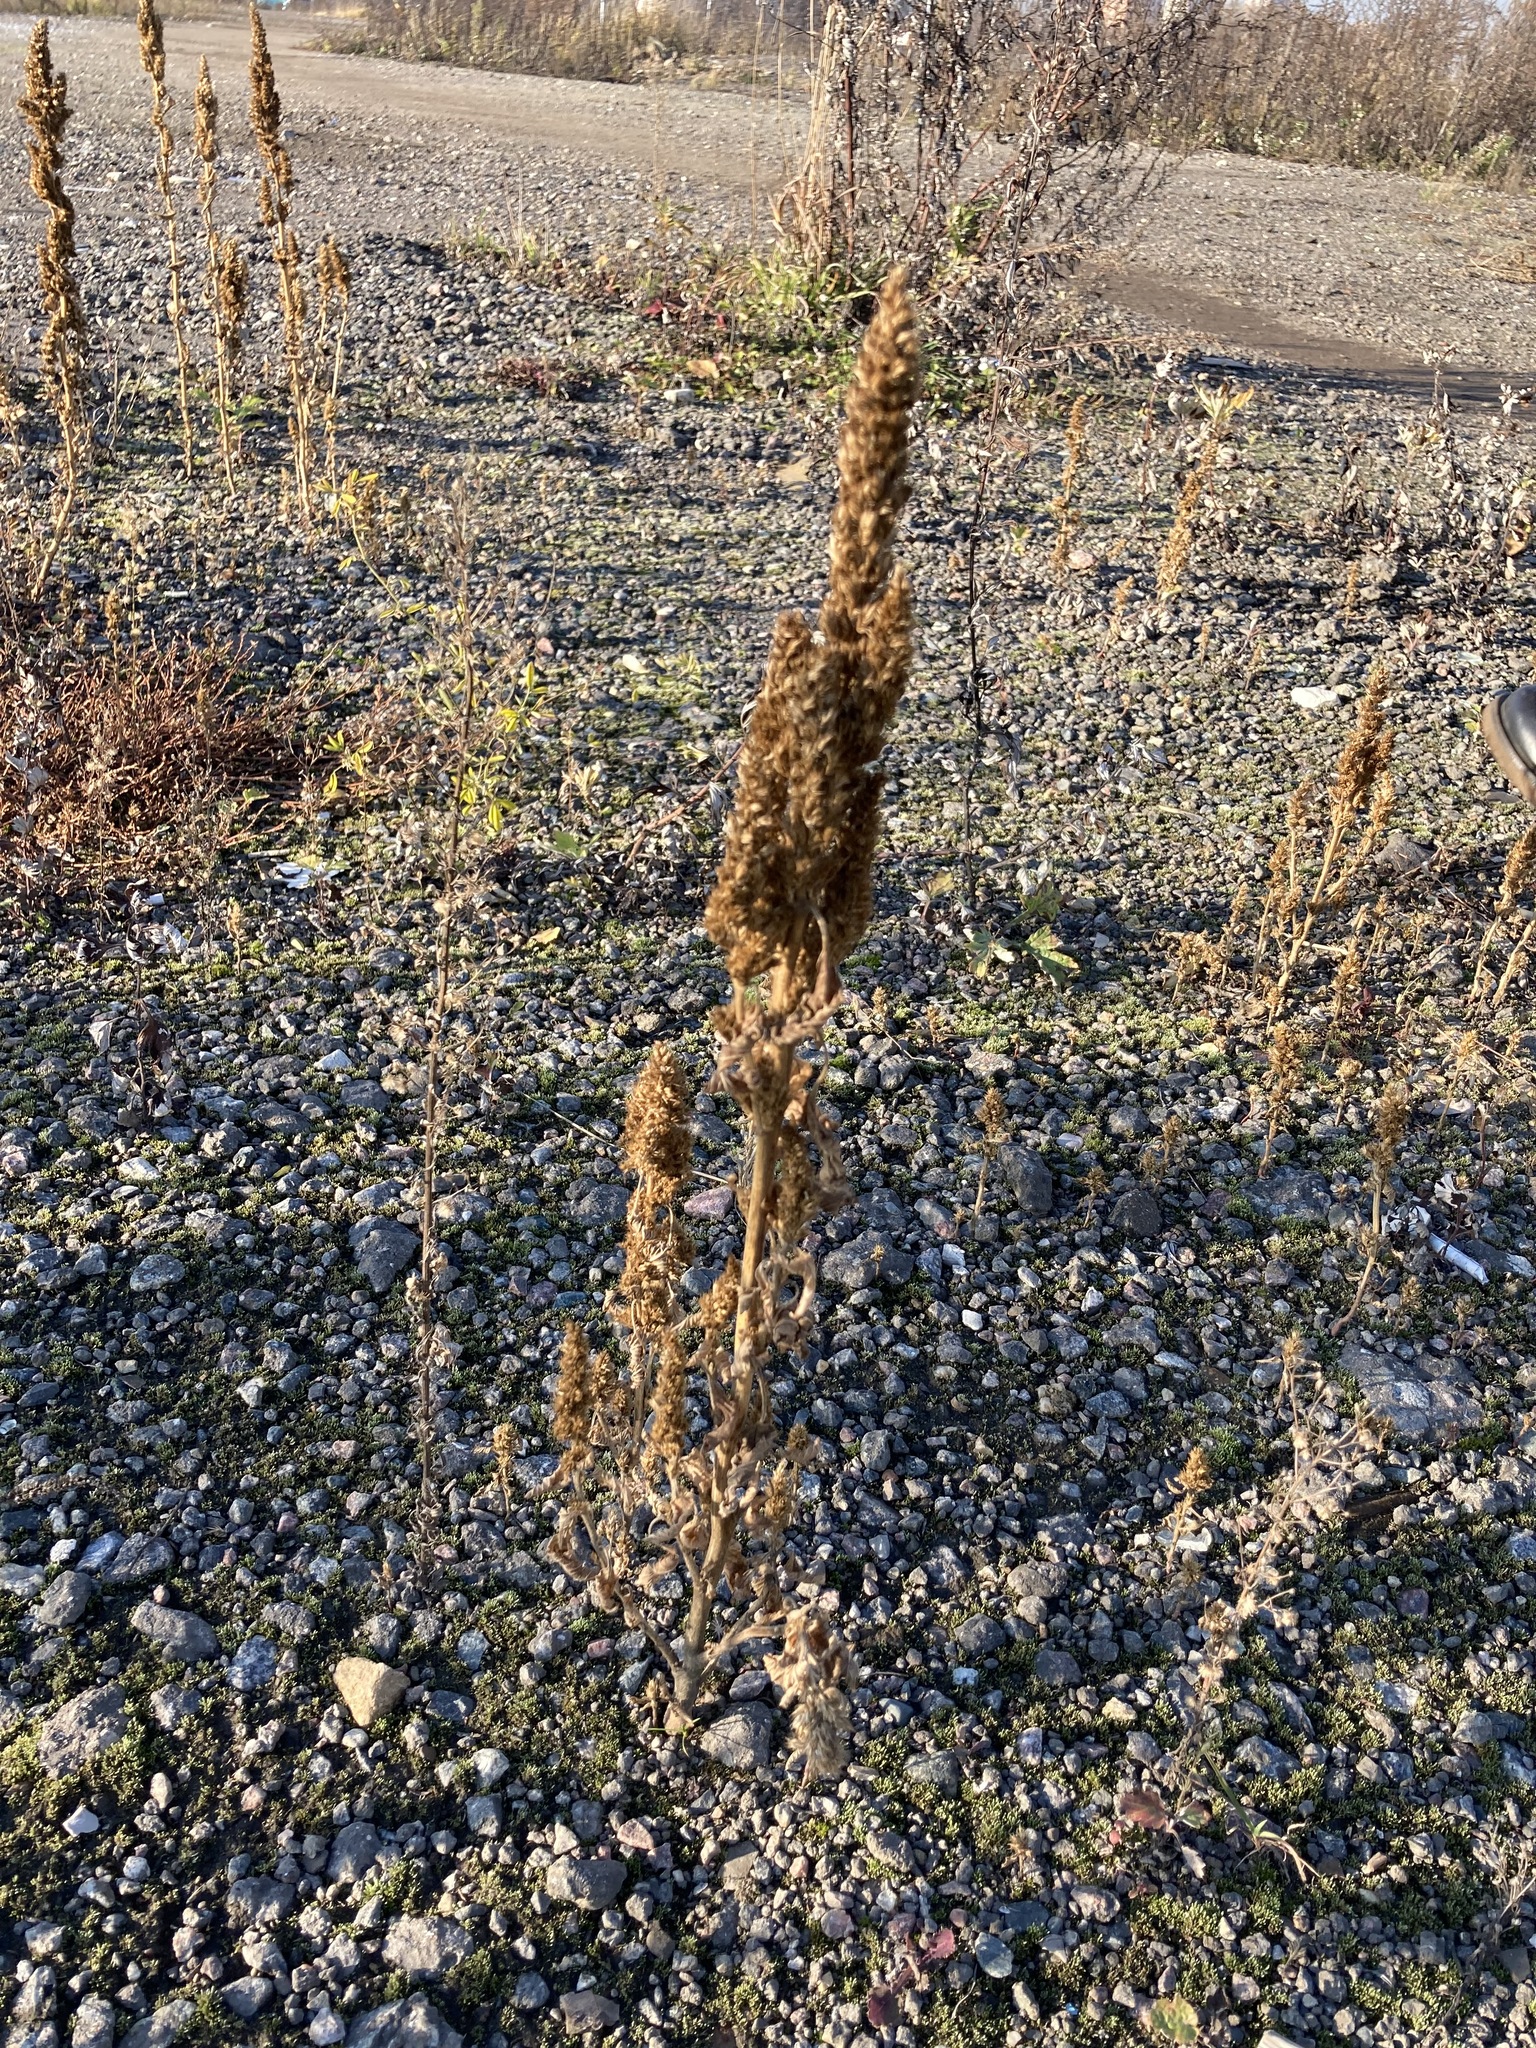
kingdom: Plantae
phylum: Tracheophyta
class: Magnoliopsida
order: Caryophyllales
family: Amaranthaceae
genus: Amaranthus
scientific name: Amaranthus retroflexus
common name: Redroot amaranth
